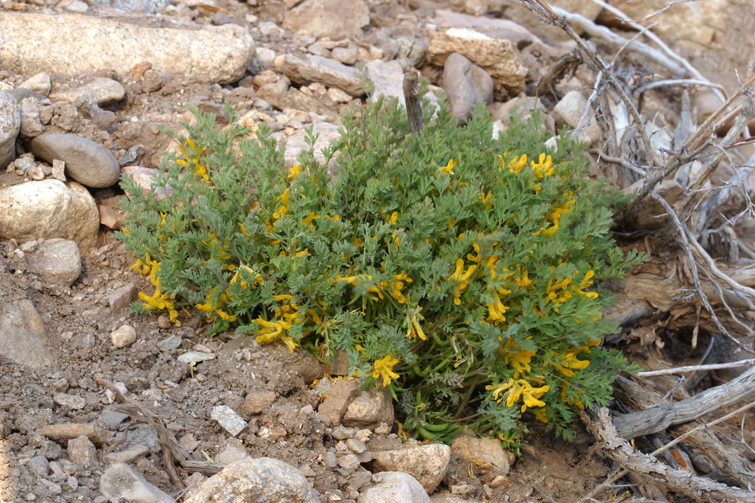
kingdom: Plantae
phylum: Tracheophyta
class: Magnoliopsida
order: Ranunculales
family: Papaveraceae
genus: Corydalis
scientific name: Corydalis aurea
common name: Golden corydalis
